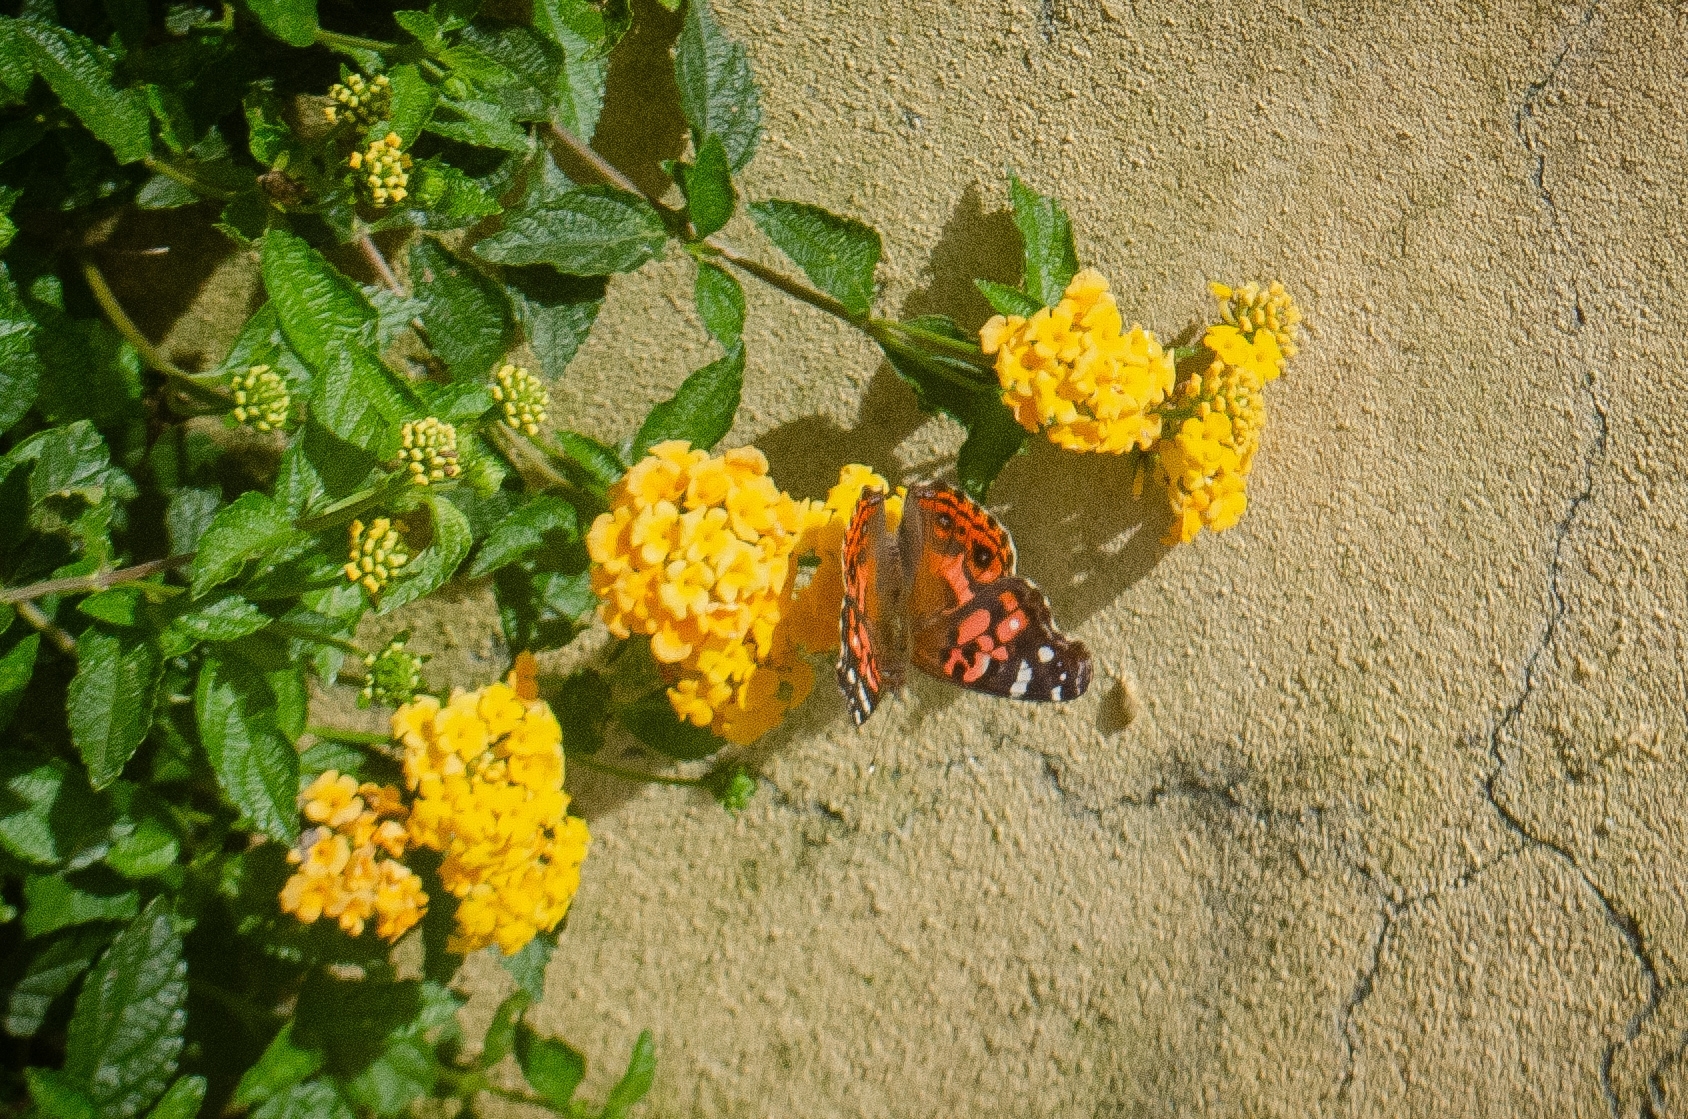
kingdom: Animalia
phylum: Arthropoda
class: Insecta
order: Lepidoptera
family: Nymphalidae
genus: Vanessa
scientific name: Vanessa braziliensis
